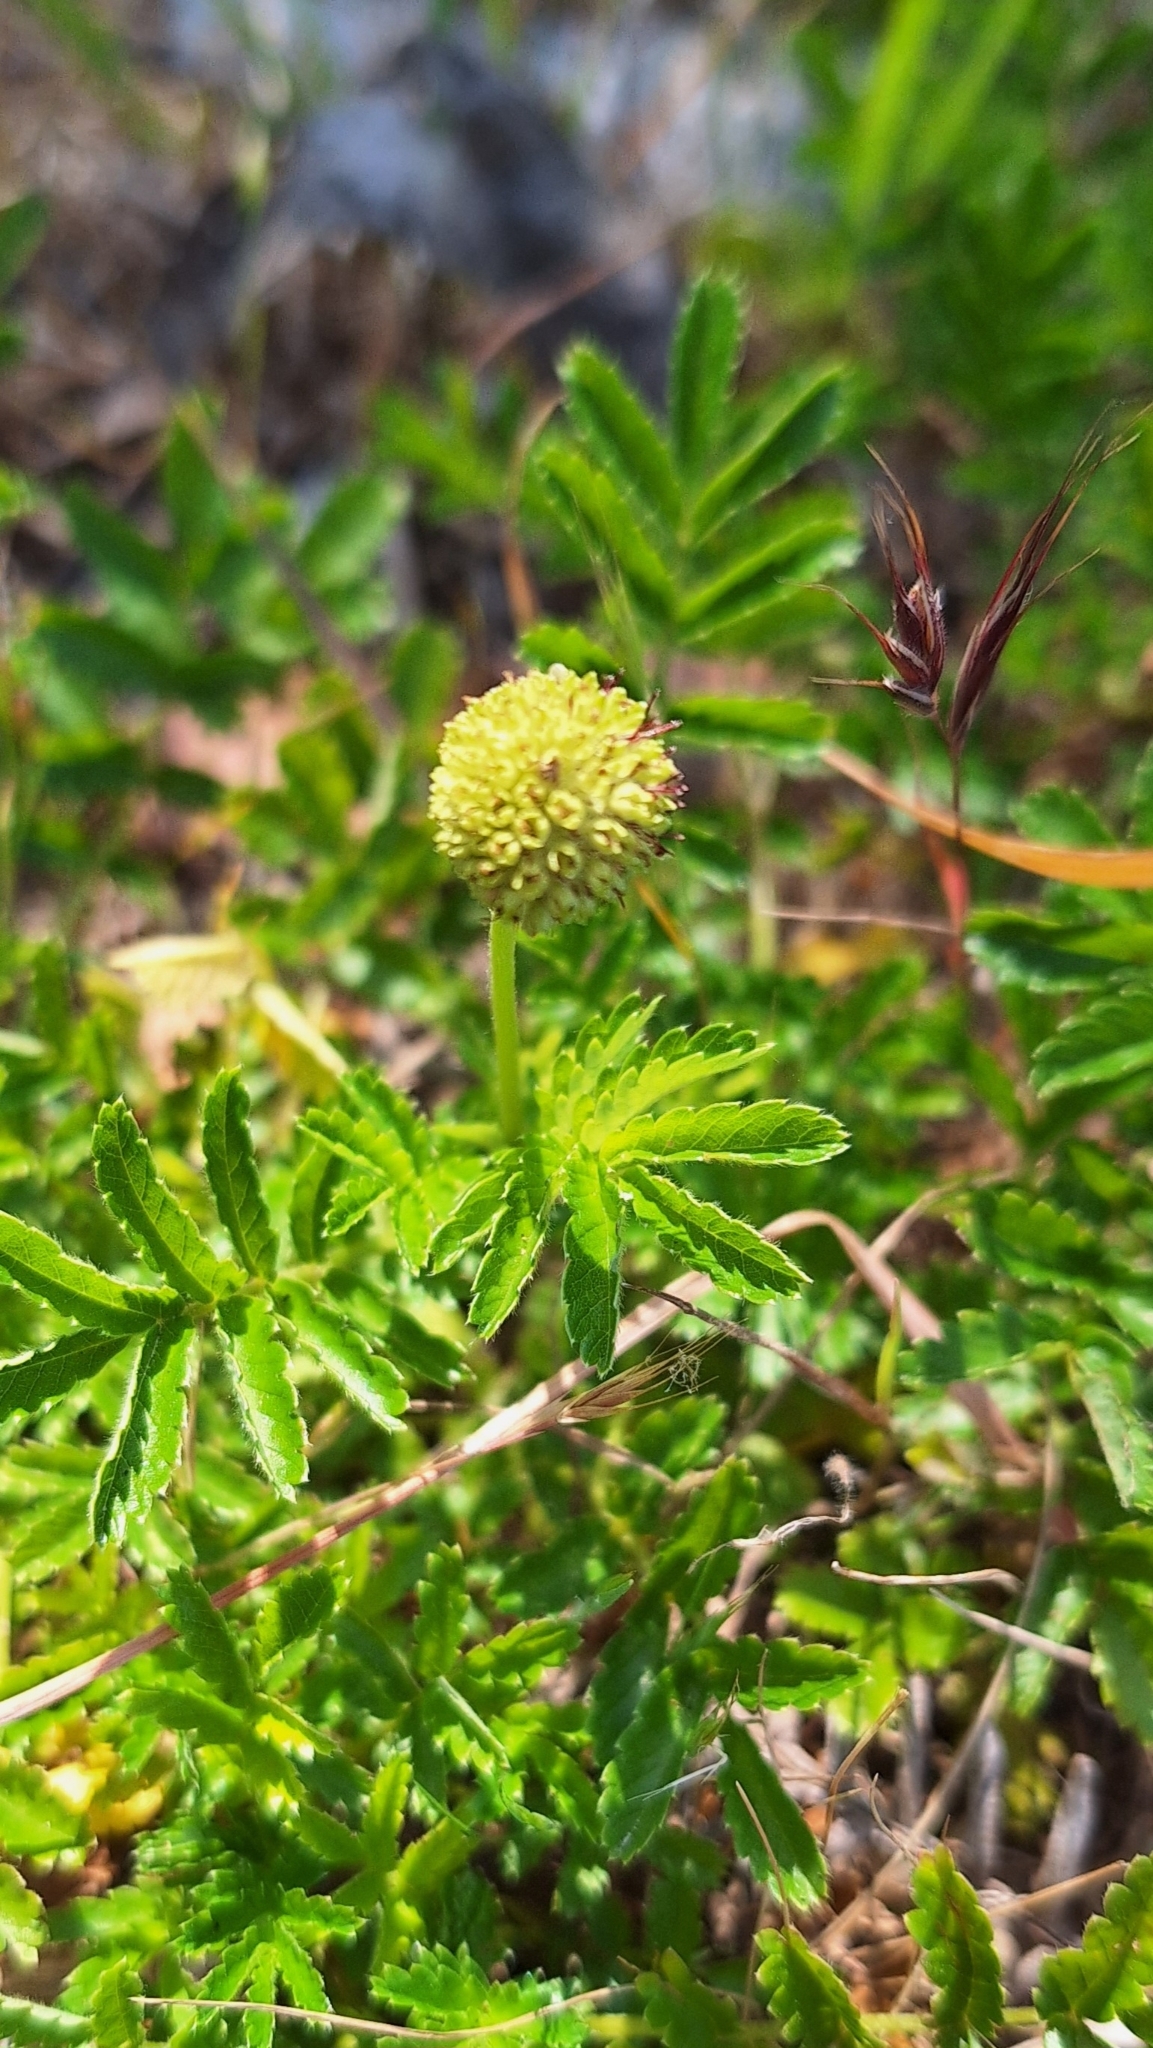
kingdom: Plantae
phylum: Tracheophyta
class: Magnoliopsida
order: Rosales
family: Rosaceae
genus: Acaena
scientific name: Acaena novae-zelandiae
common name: Pirri-pirri-bur
